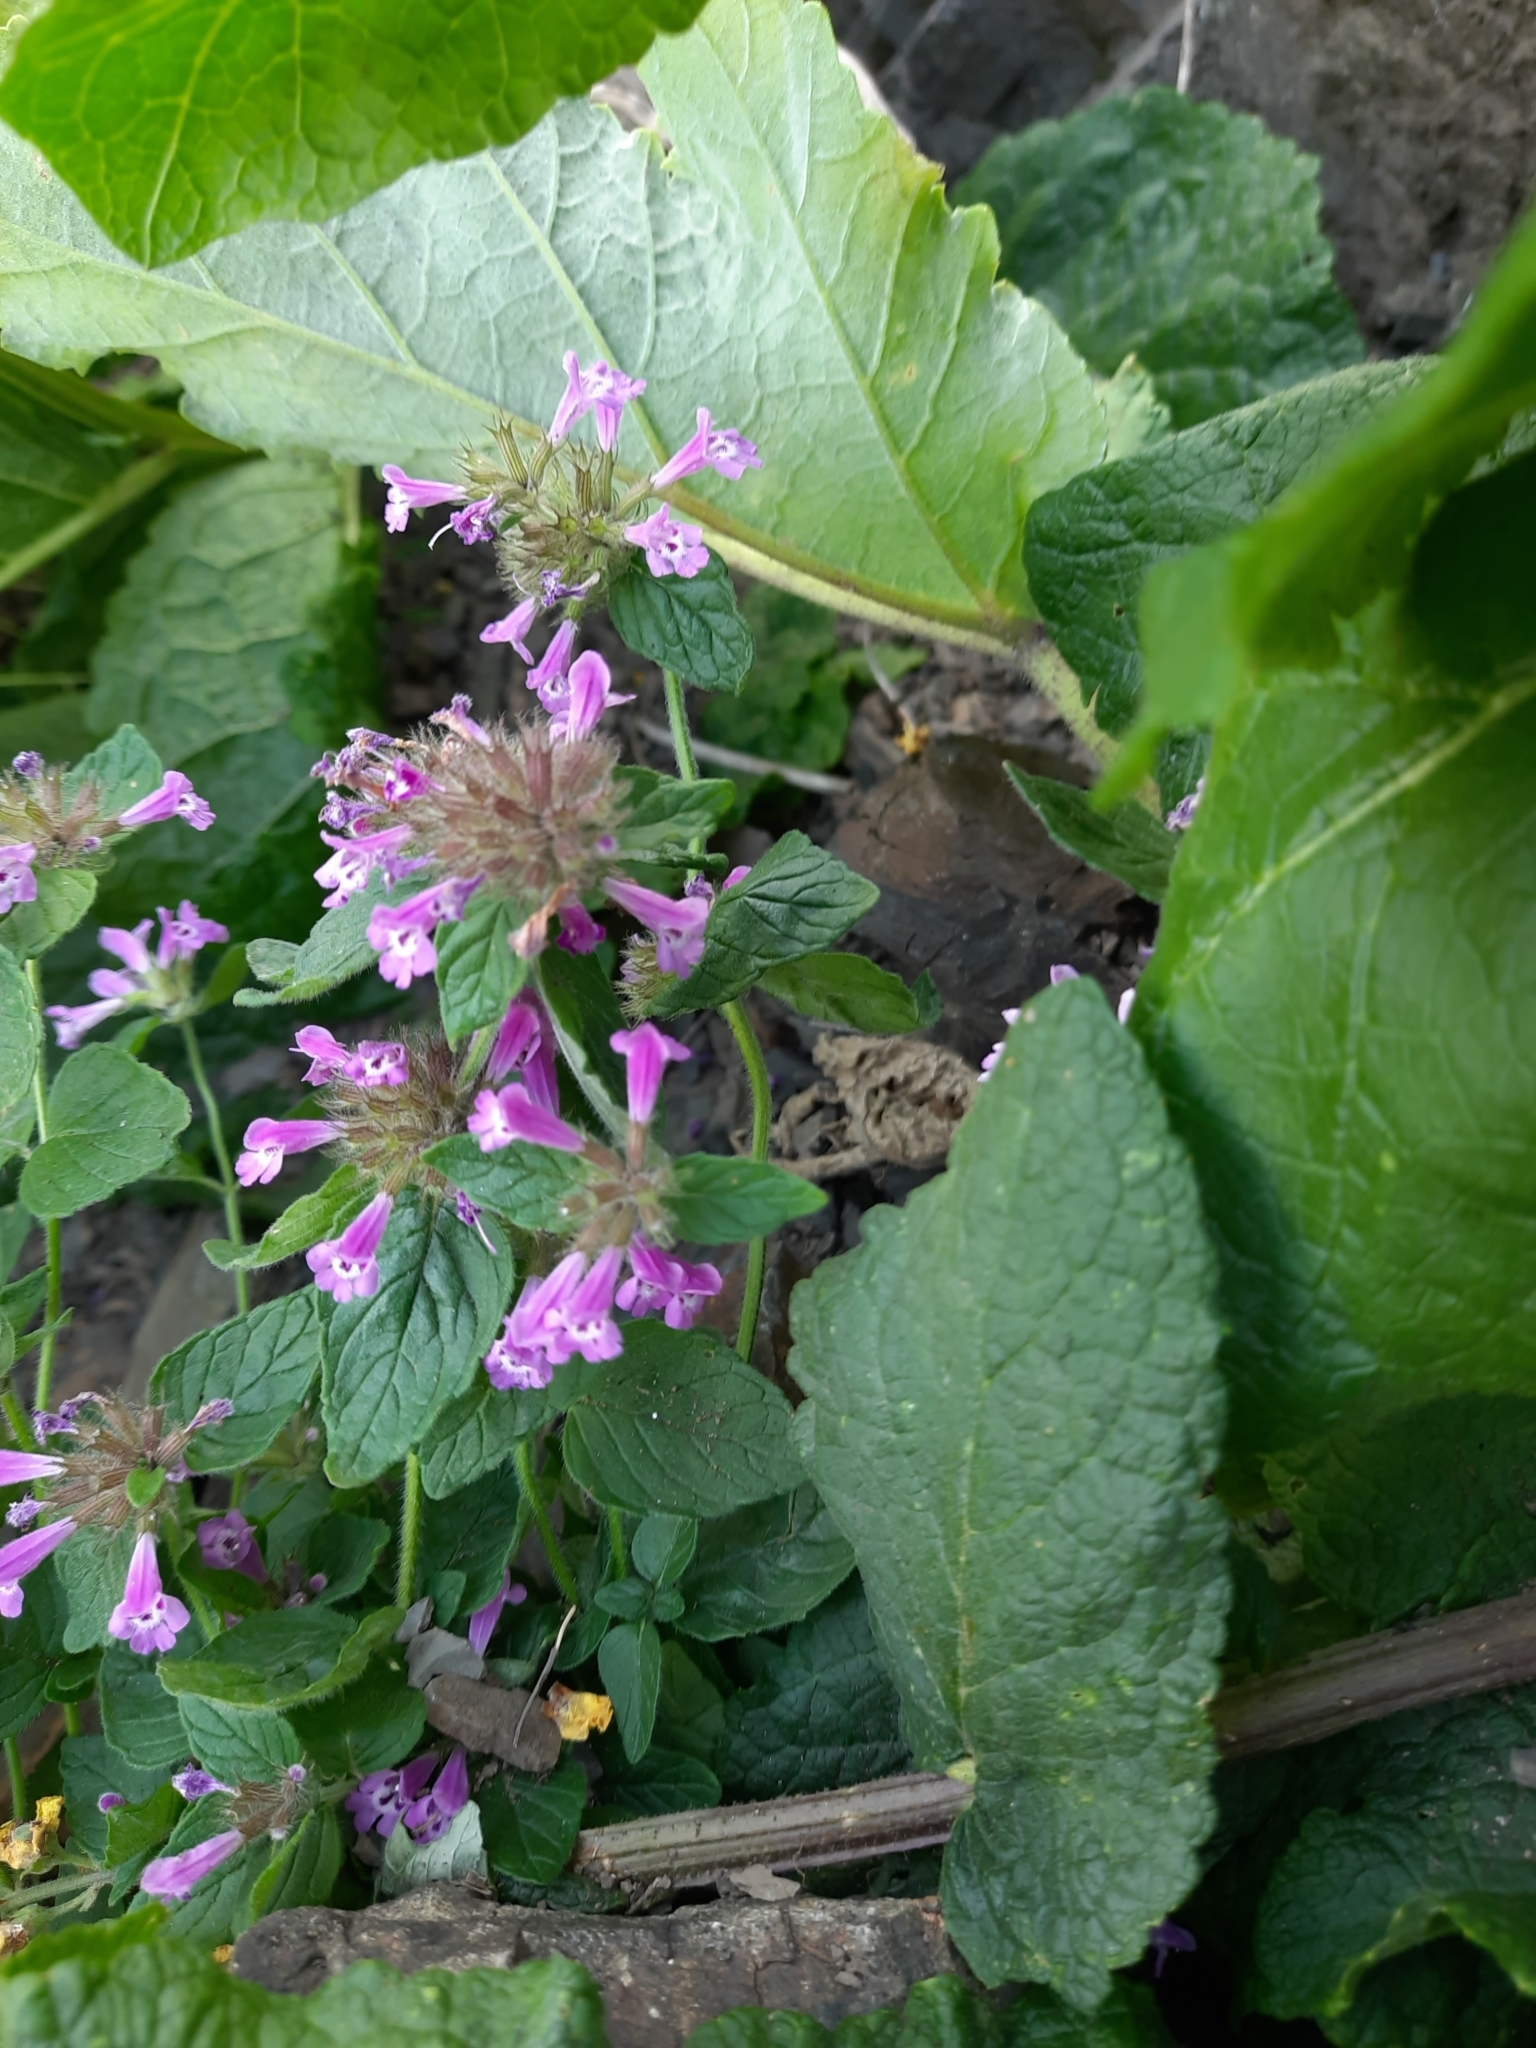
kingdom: Plantae
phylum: Tracheophyta
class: Magnoliopsida
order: Lamiales
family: Lamiaceae
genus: Clinopodium
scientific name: Clinopodium caucasicum
